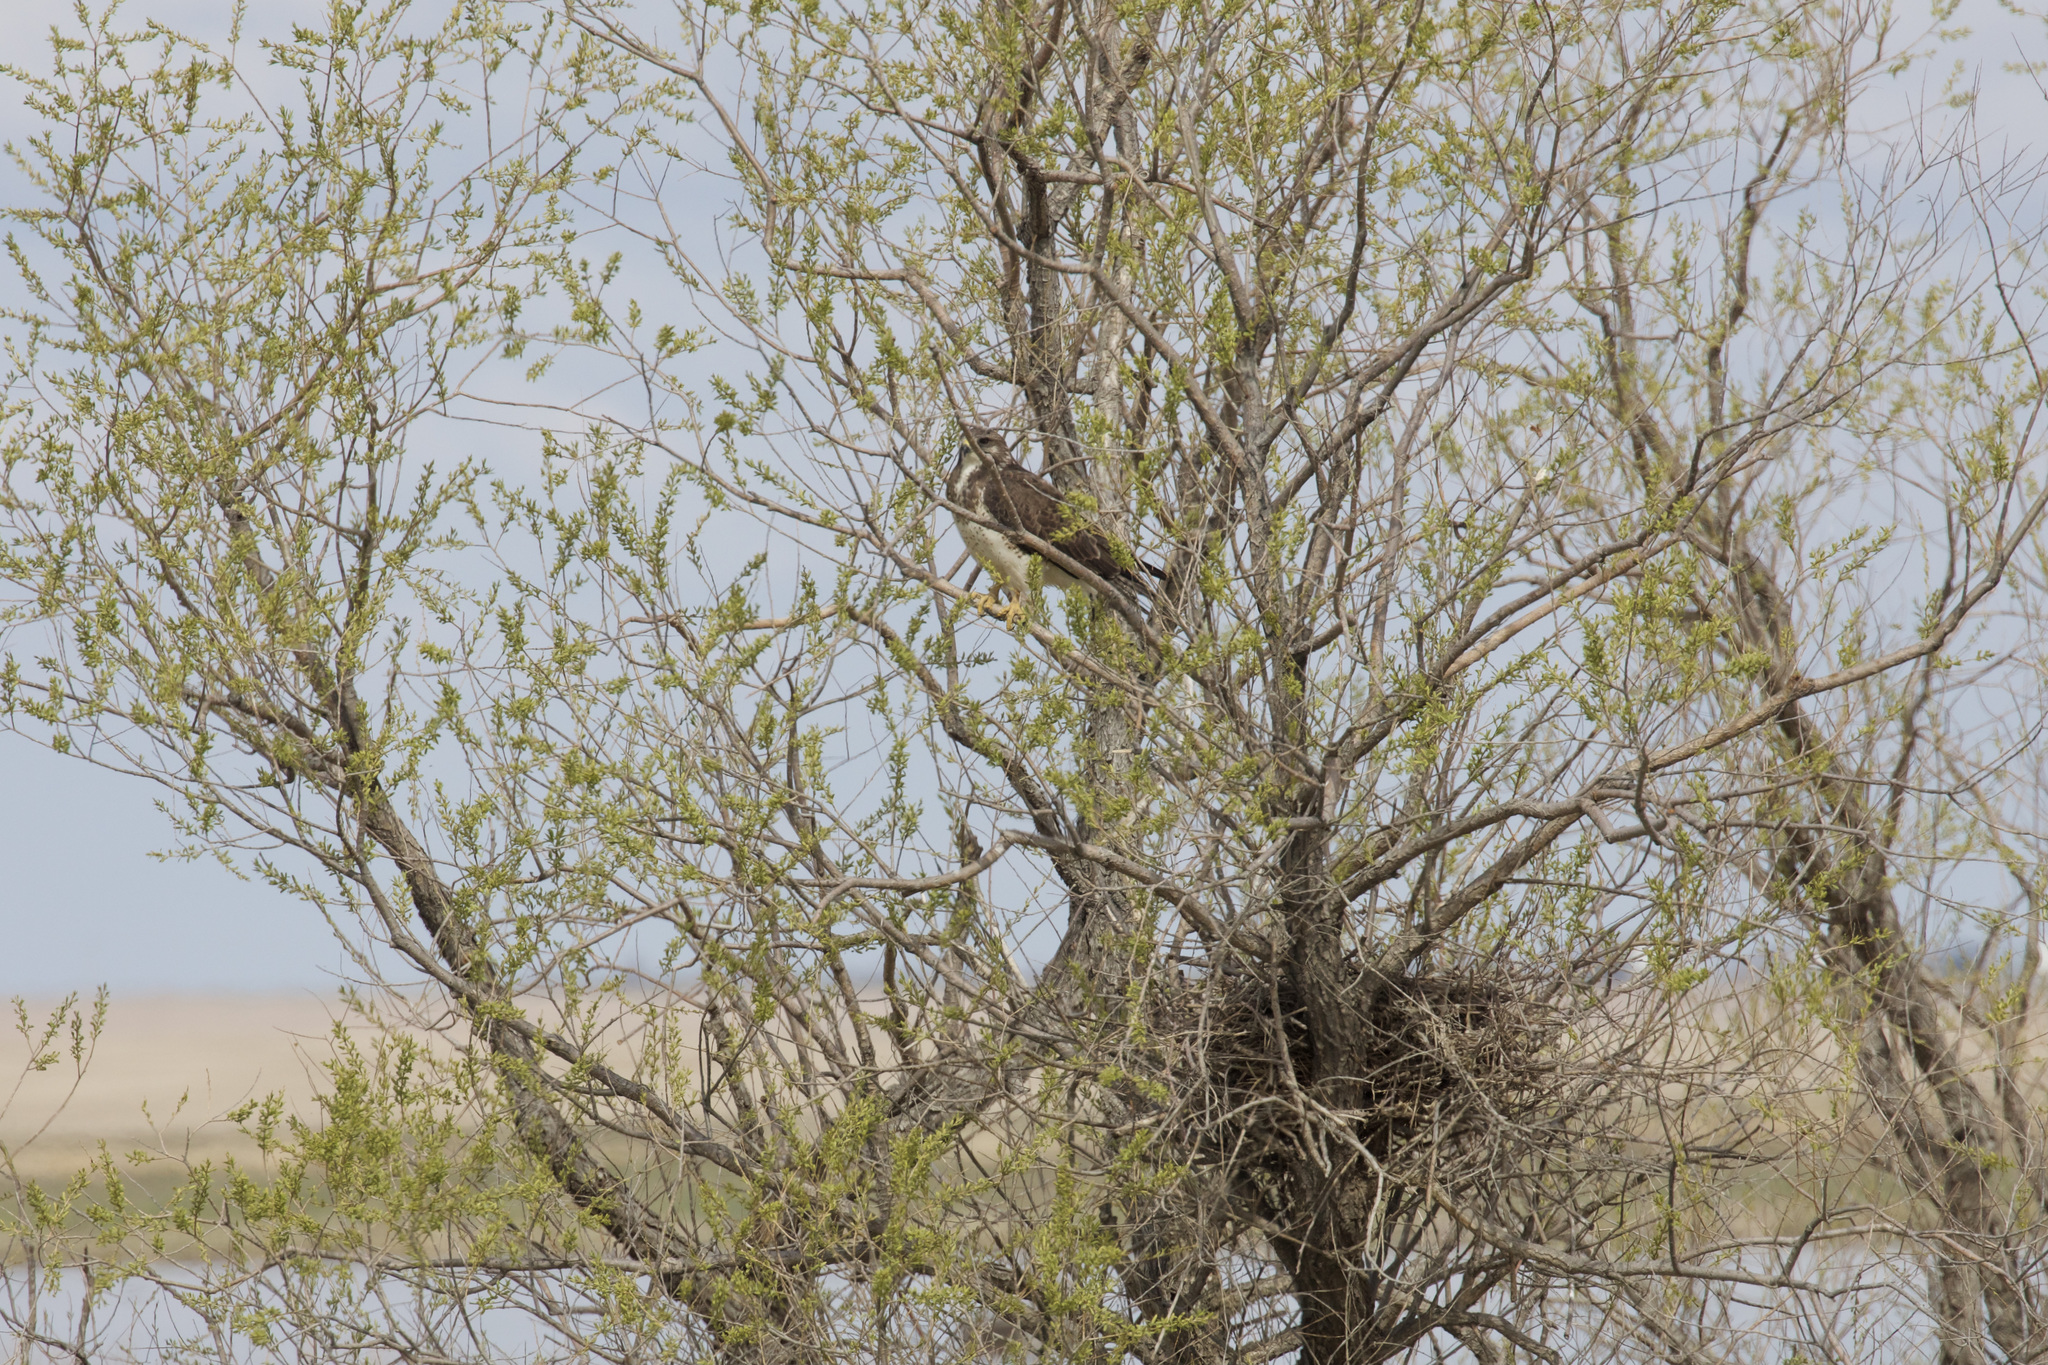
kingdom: Animalia
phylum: Chordata
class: Aves
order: Accipitriformes
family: Accipitridae
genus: Buteo
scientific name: Buteo swainsoni
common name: Swainson's hawk
